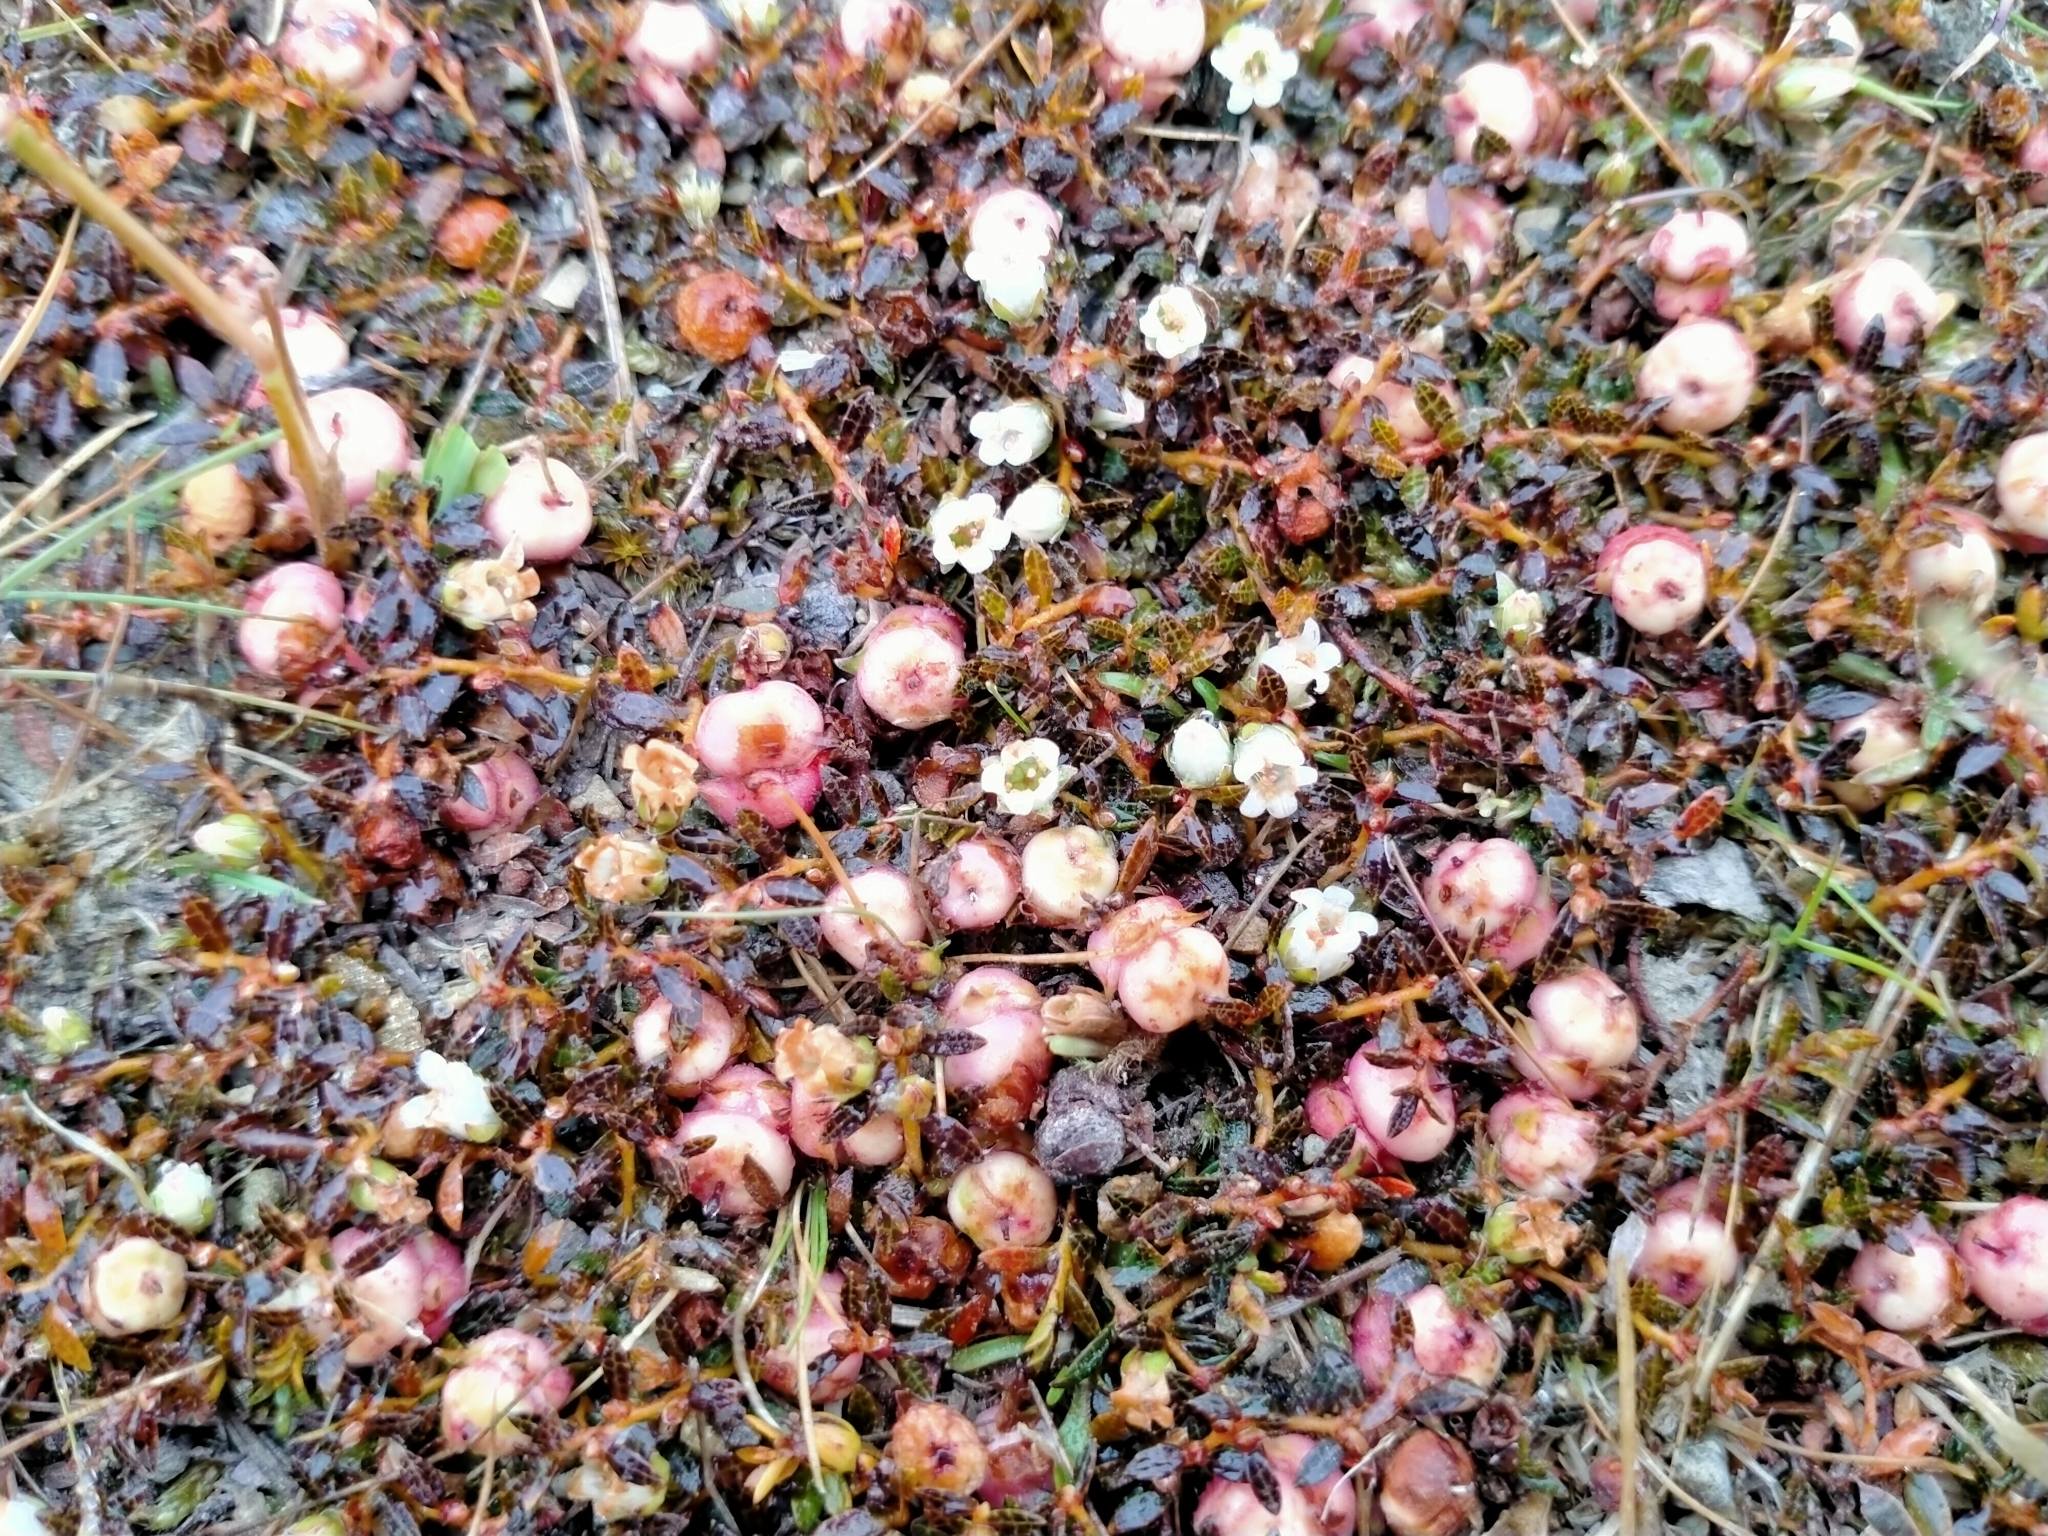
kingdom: Plantae
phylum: Tracheophyta
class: Magnoliopsida
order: Ericales
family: Ericaceae
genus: Gaultheria
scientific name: Gaultheria parvula
